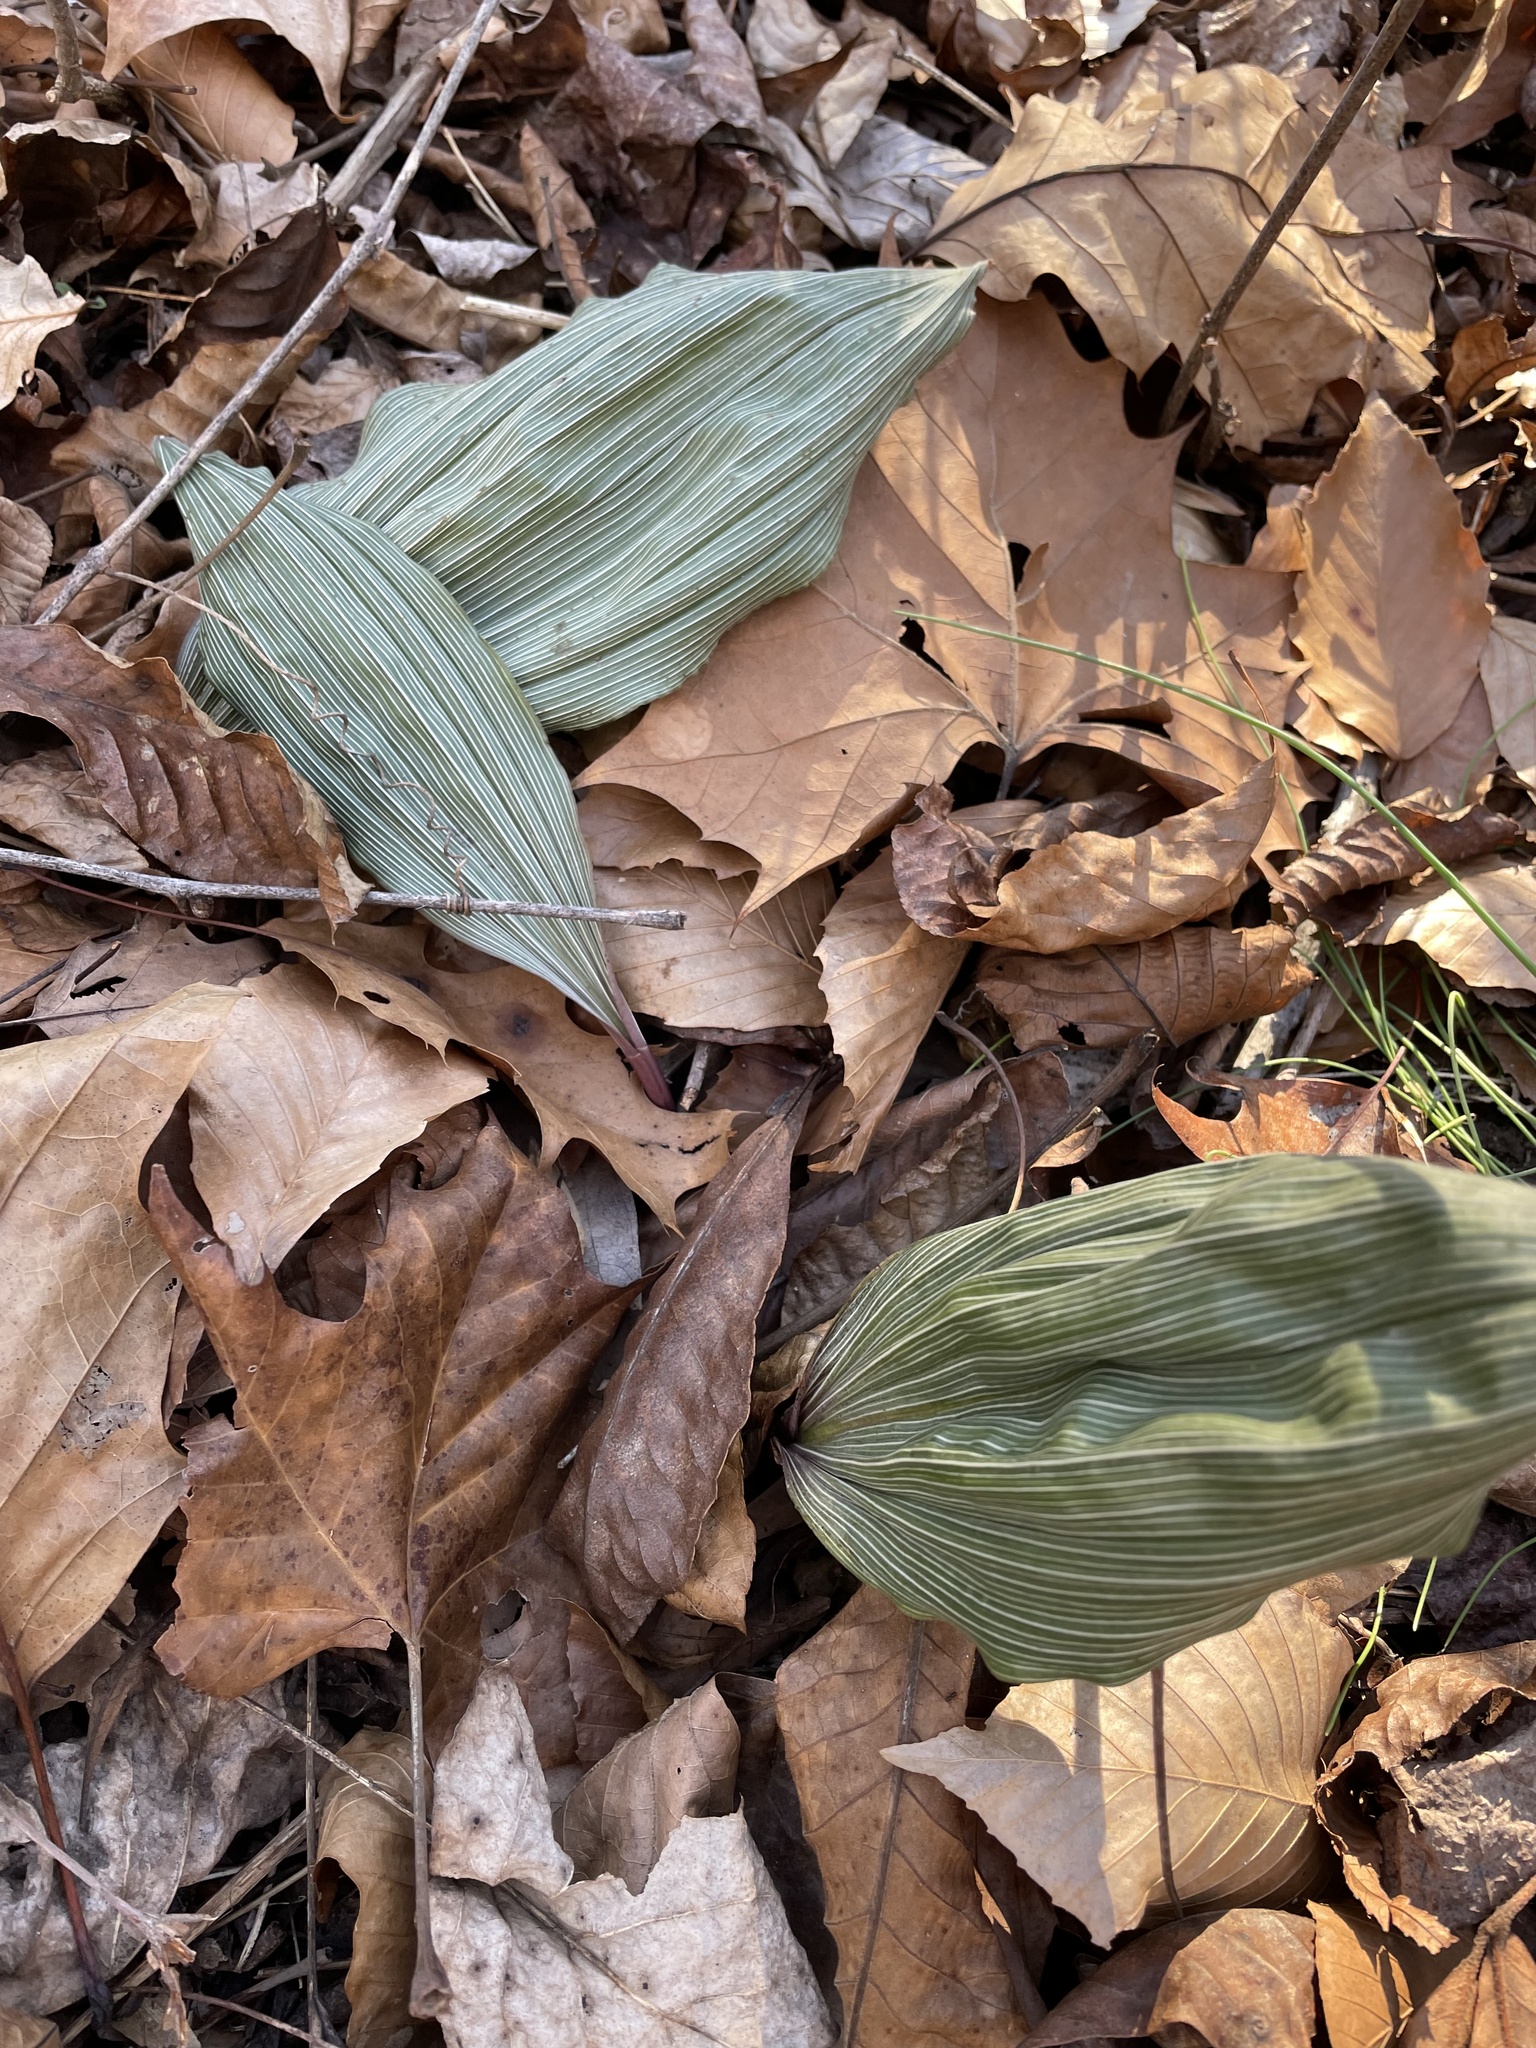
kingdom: Plantae
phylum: Tracheophyta
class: Liliopsida
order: Asparagales
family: Orchidaceae
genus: Aplectrum
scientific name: Aplectrum hyemale
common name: Adam-and-eve
